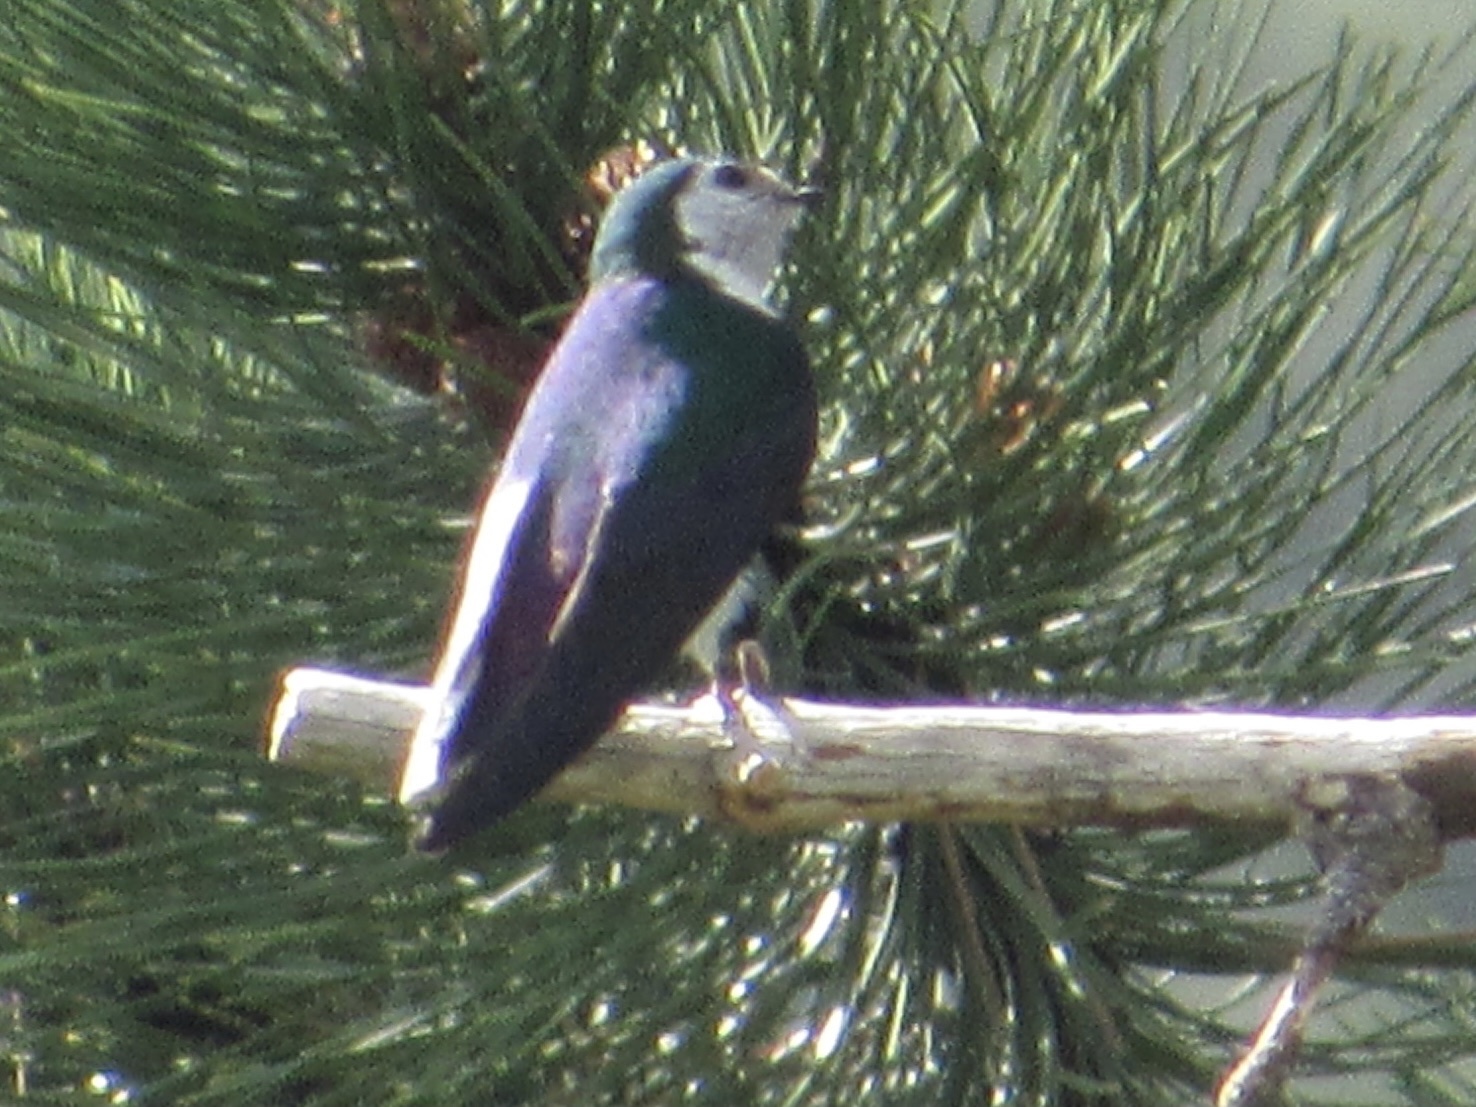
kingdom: Animalia
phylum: Chordata
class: Aves
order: Passeriformes
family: Hirundinidae
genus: Tachycineta
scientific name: Tachycineta thalassina
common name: Violet-green swallow
